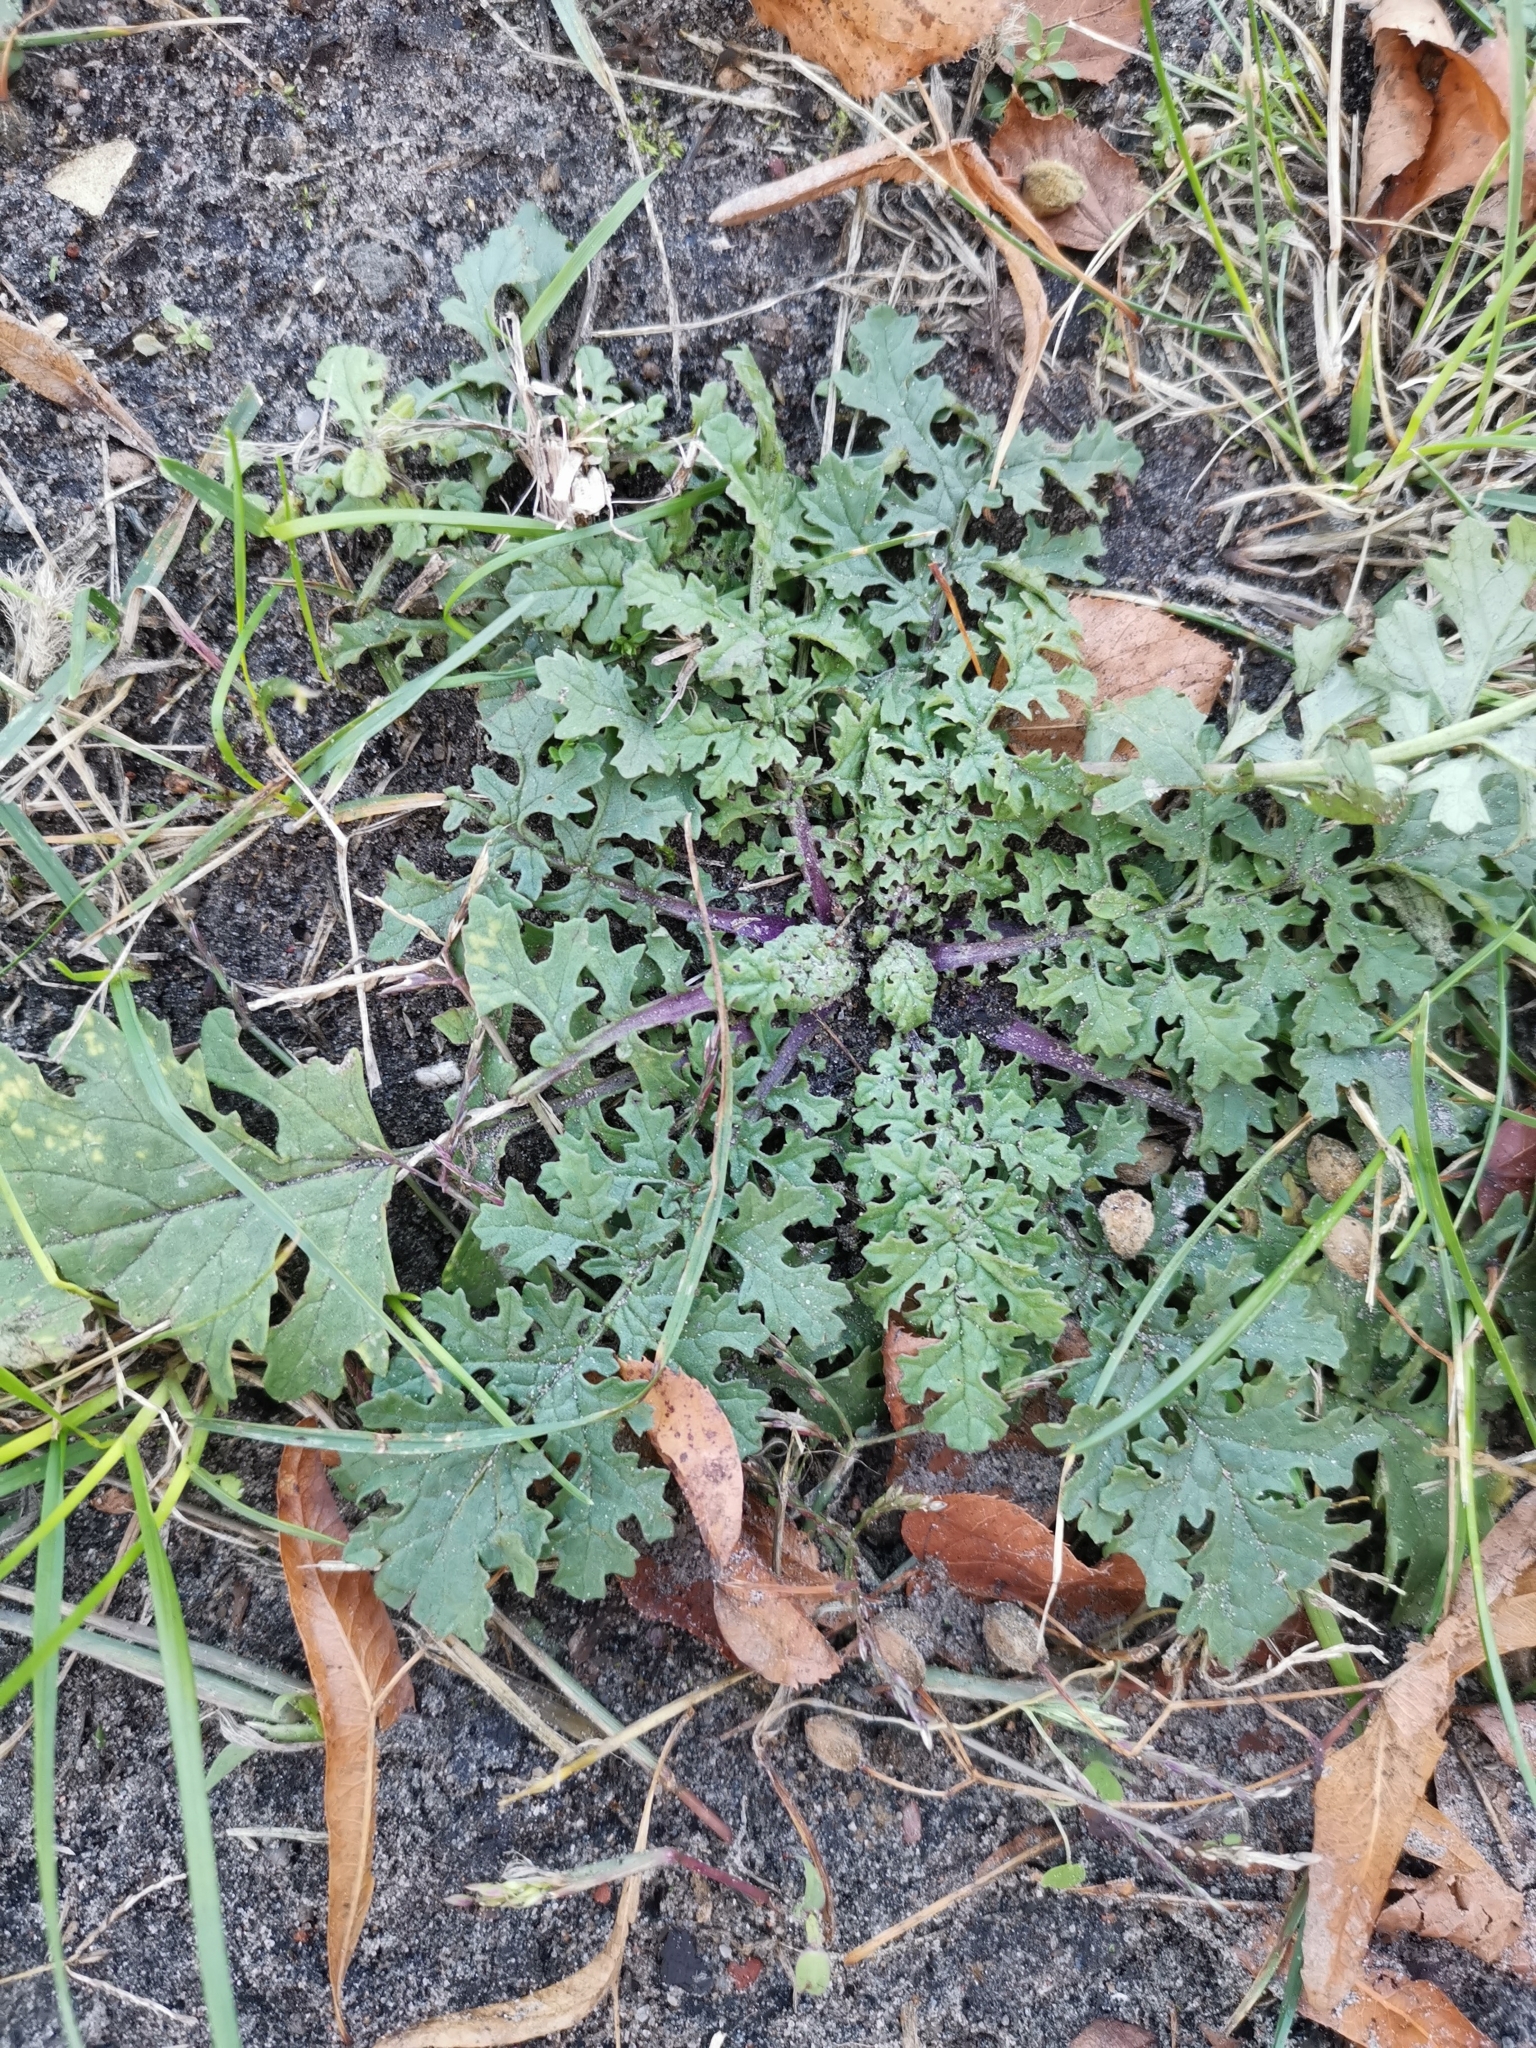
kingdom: Plantae
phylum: Tracheophyta
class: Magnoliopsida
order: Asterales
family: Asteraceae
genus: Jacobaea
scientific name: Jacobaea vulgaris
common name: Stinking willie
